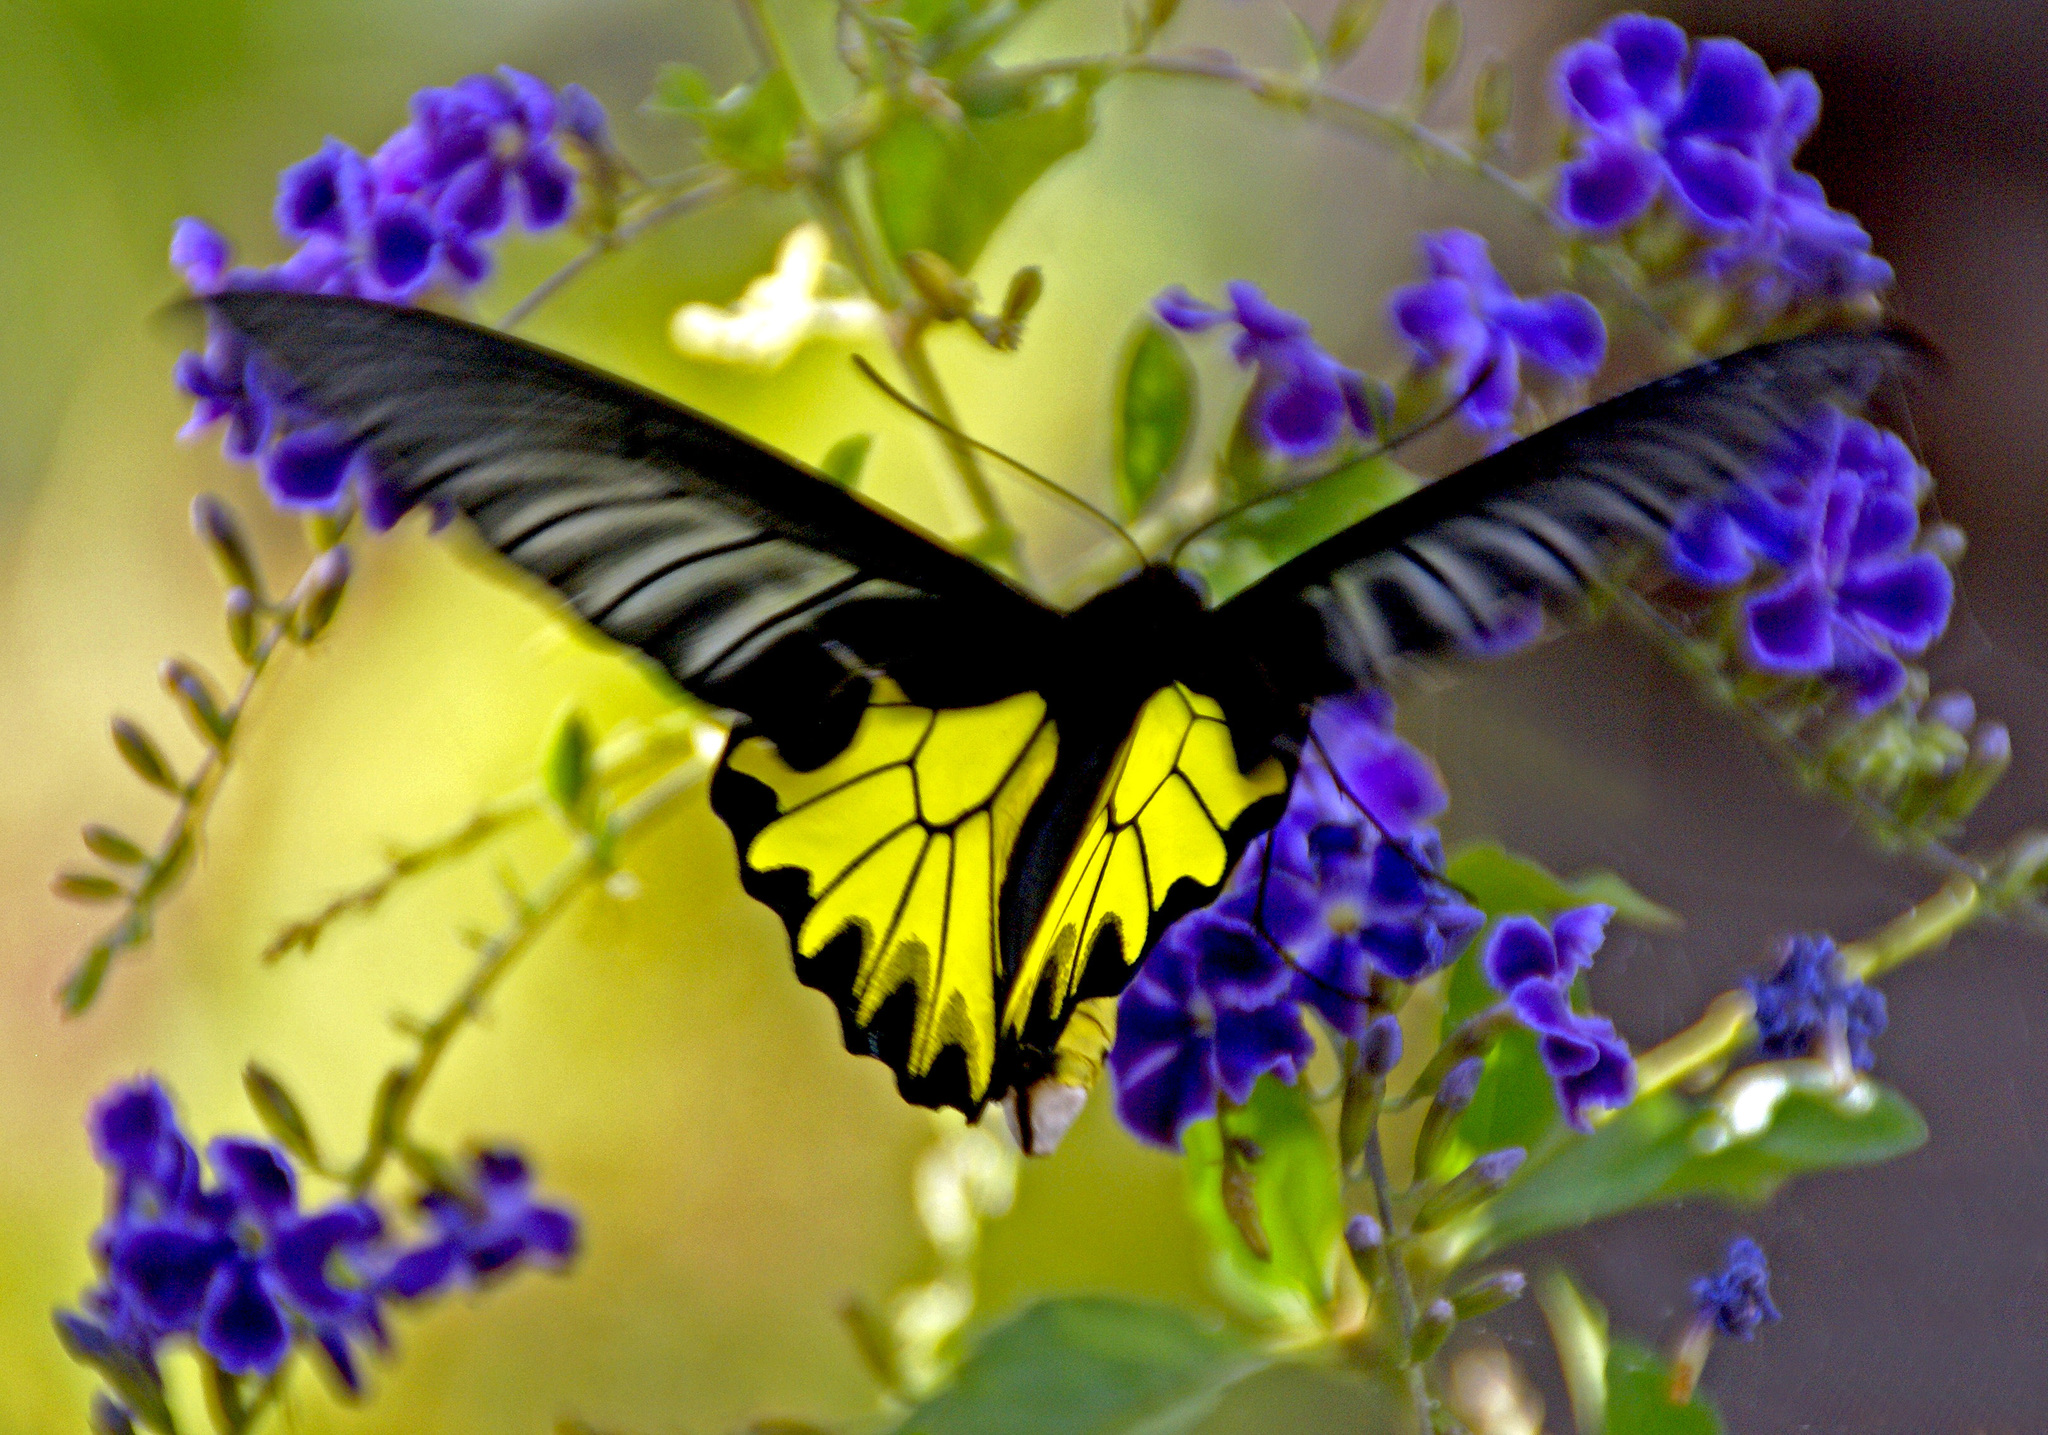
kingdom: Animalia
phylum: Arthropoda
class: Insecta
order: Lepidoptera
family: Papilionidae
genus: Troides
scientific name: Troides aeacus
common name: Golden birdwing
